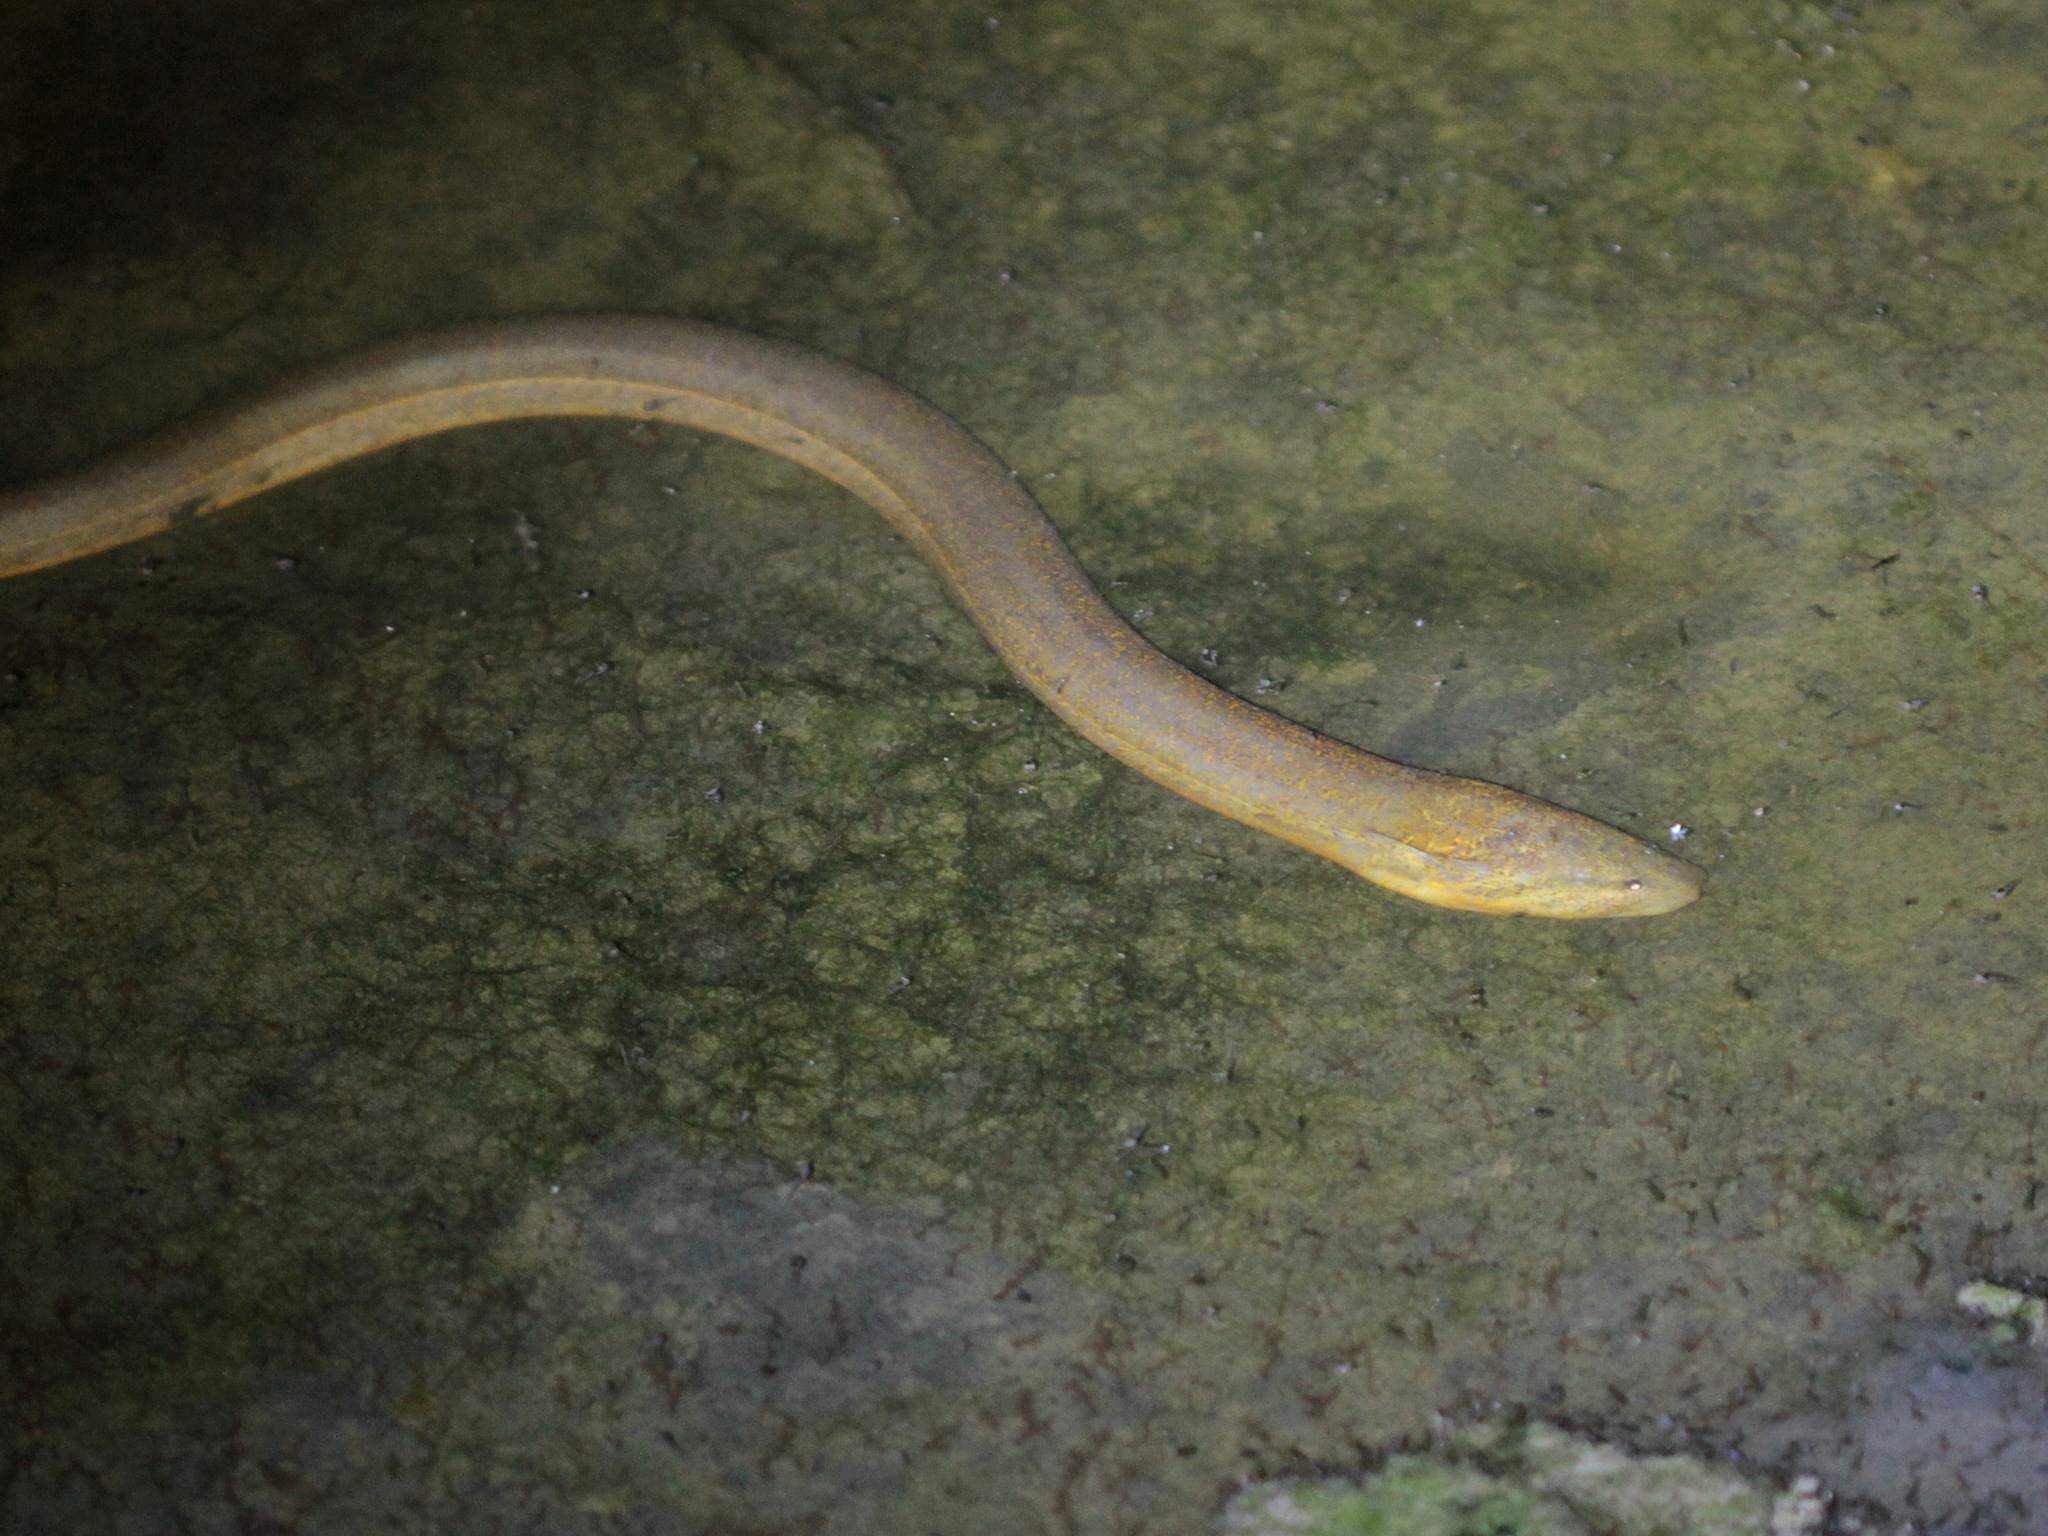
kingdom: Animalia
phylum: Chordata
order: Synbranchiformes
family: Synbranchidae
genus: Monopterus
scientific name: Monopterus albus
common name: Asian swamp eel
